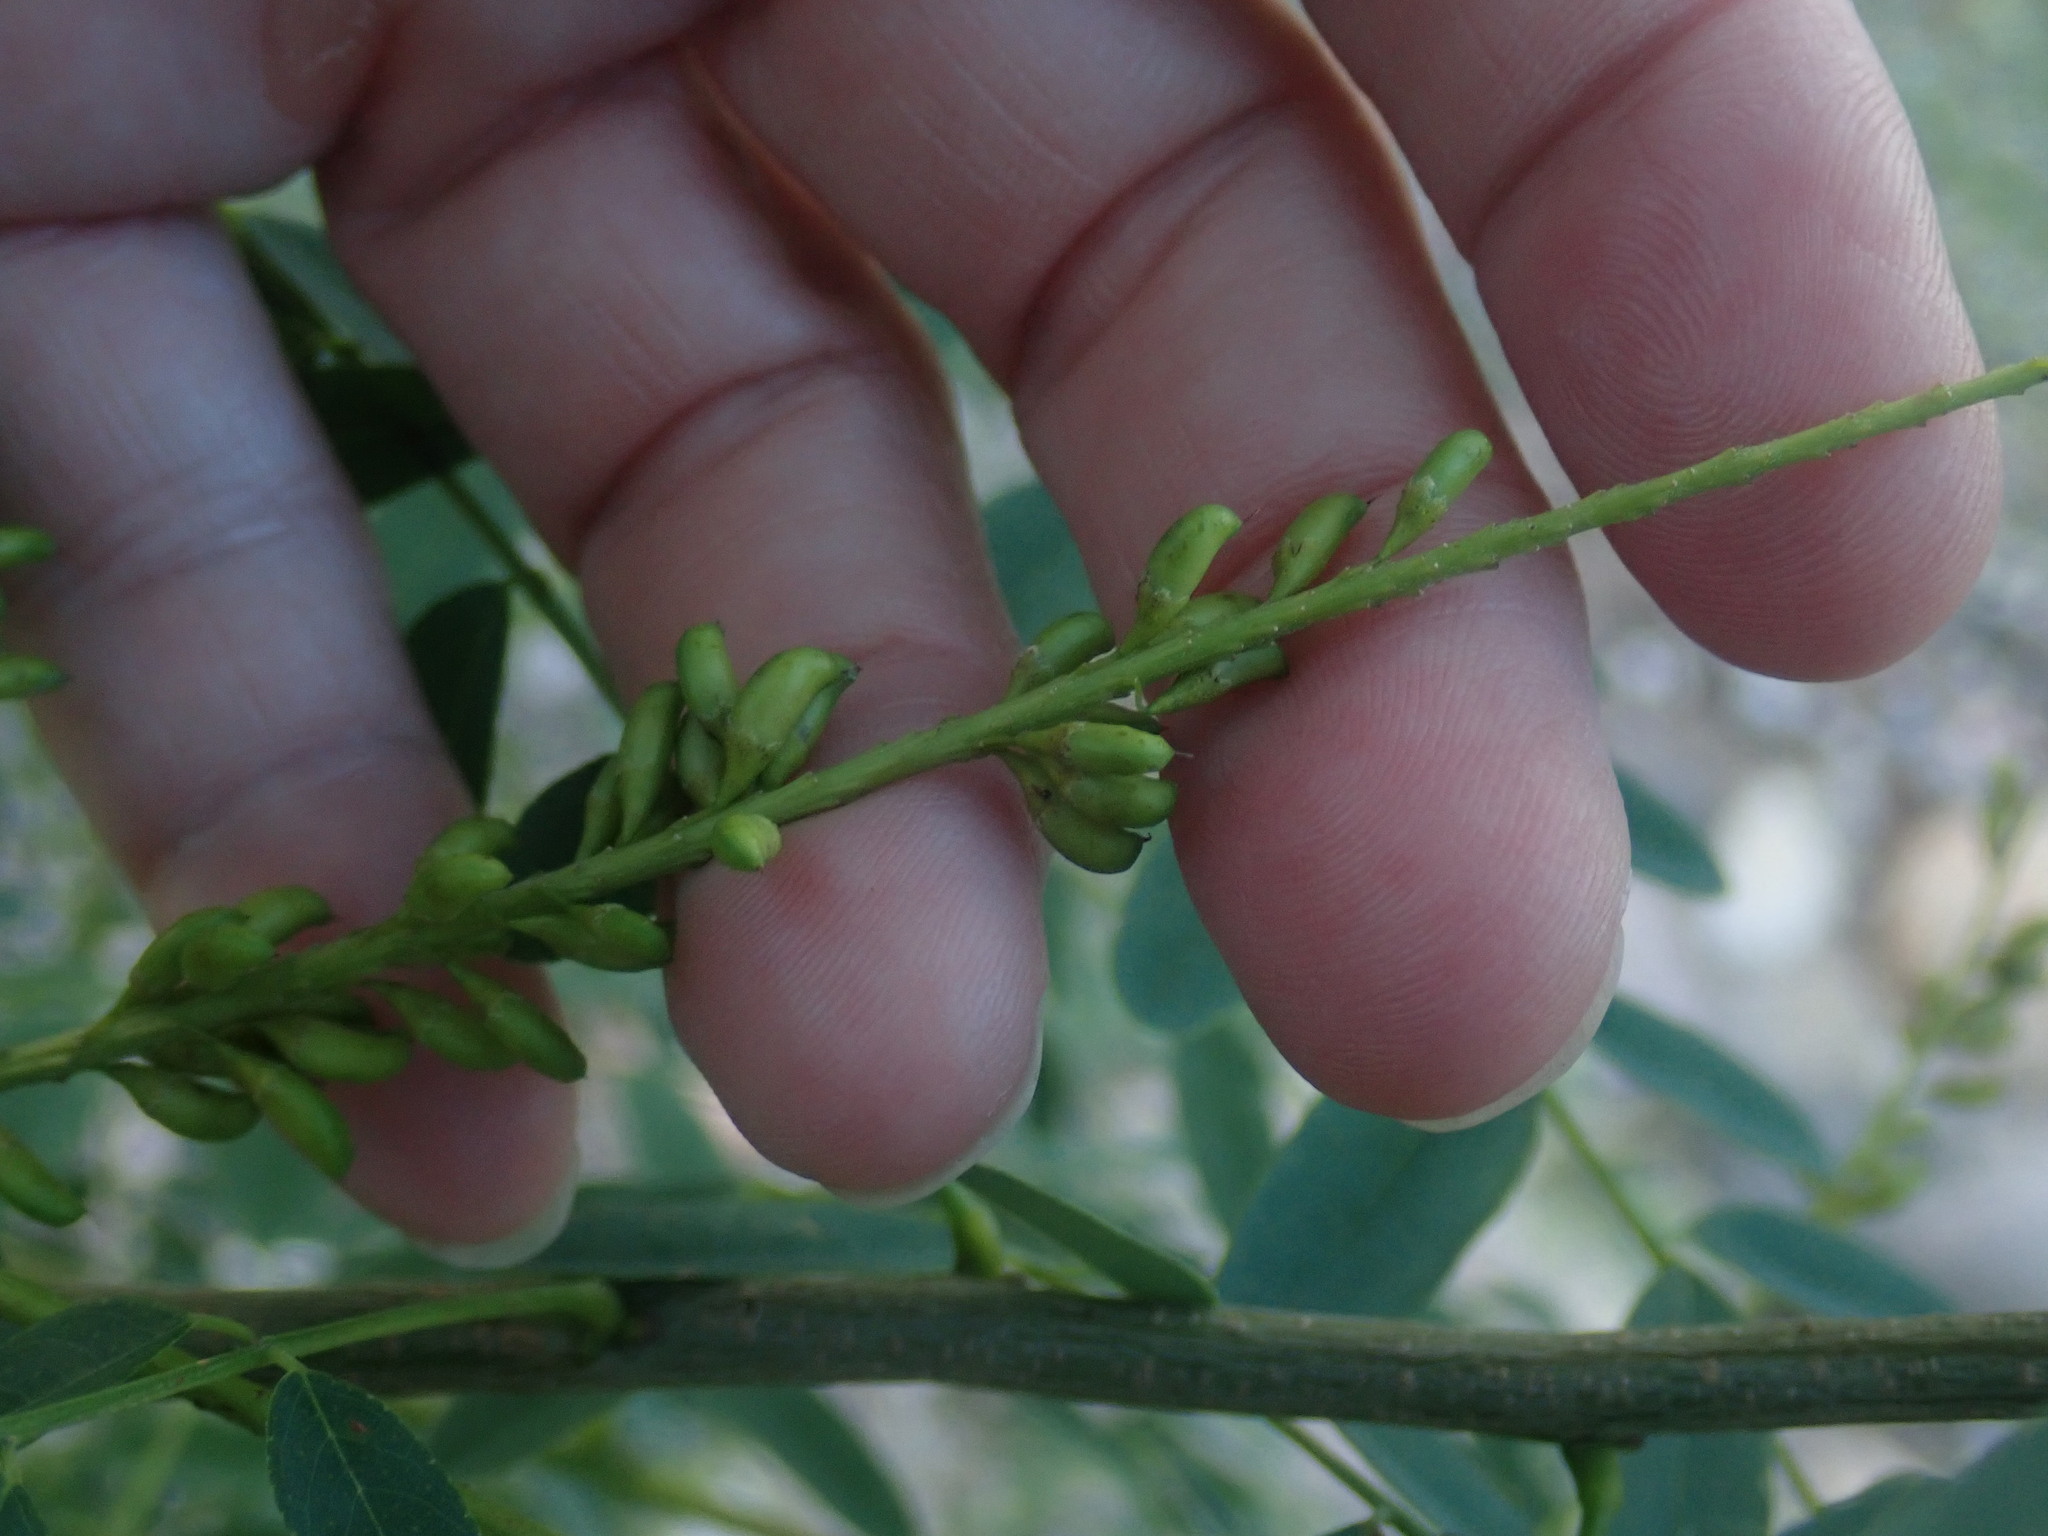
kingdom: Plantae
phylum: Tracheophyta
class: Magnoliopsida
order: Fabales
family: Fabaceae
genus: Amorpha
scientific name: Amorpha fruticosa
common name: False indigo
